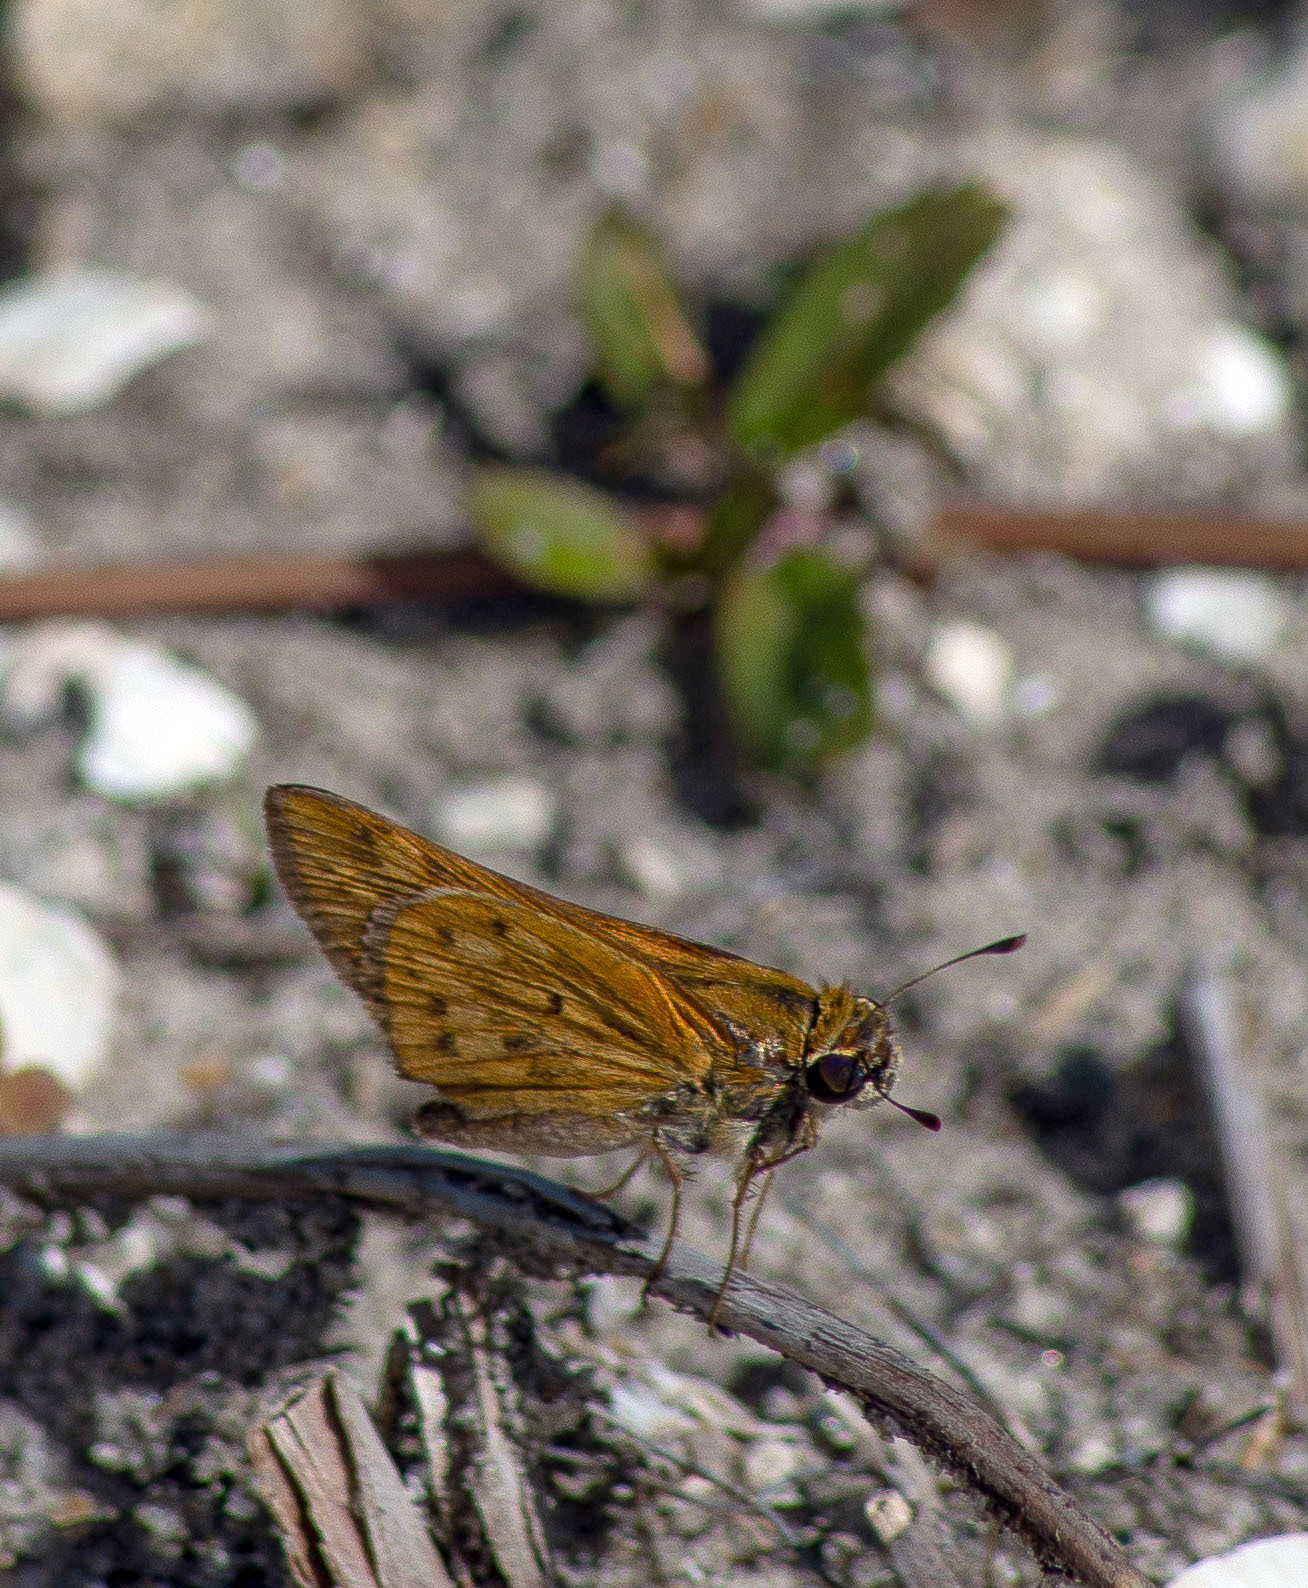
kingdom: Animalia
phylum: Arthropoda
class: Insecta
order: Lepidoptera
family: Hesperiidae
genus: Hylephila
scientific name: Hylephila phyleus
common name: Fiery skipper
